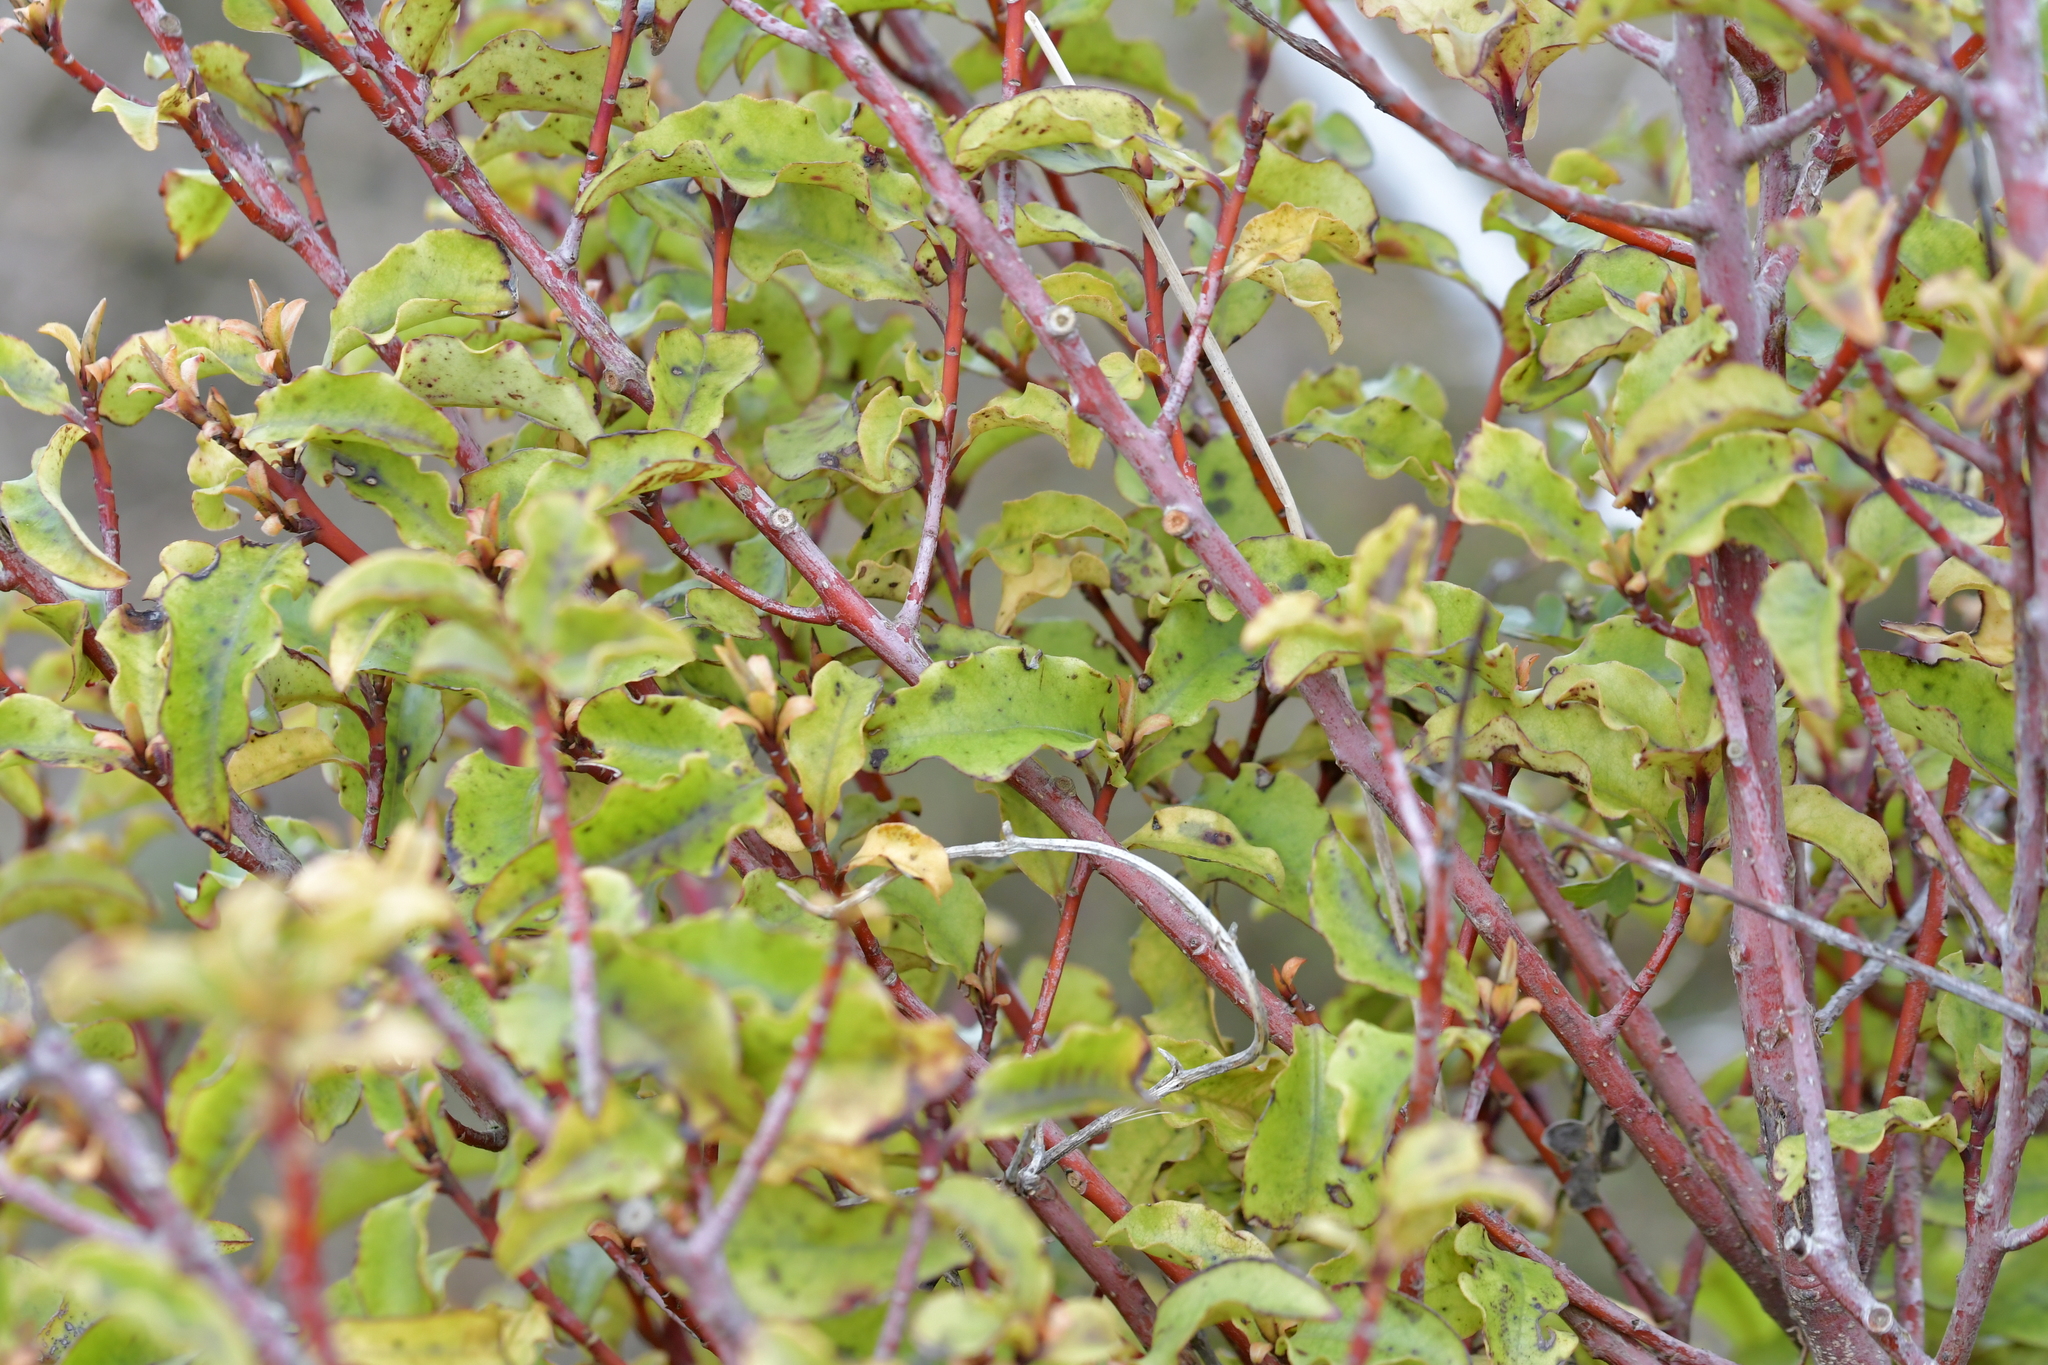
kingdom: Plantae
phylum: Tracheophyta
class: Magnoliopsida
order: Ericales
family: Primulaceae
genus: Myrsine
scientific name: Myrsine australis
